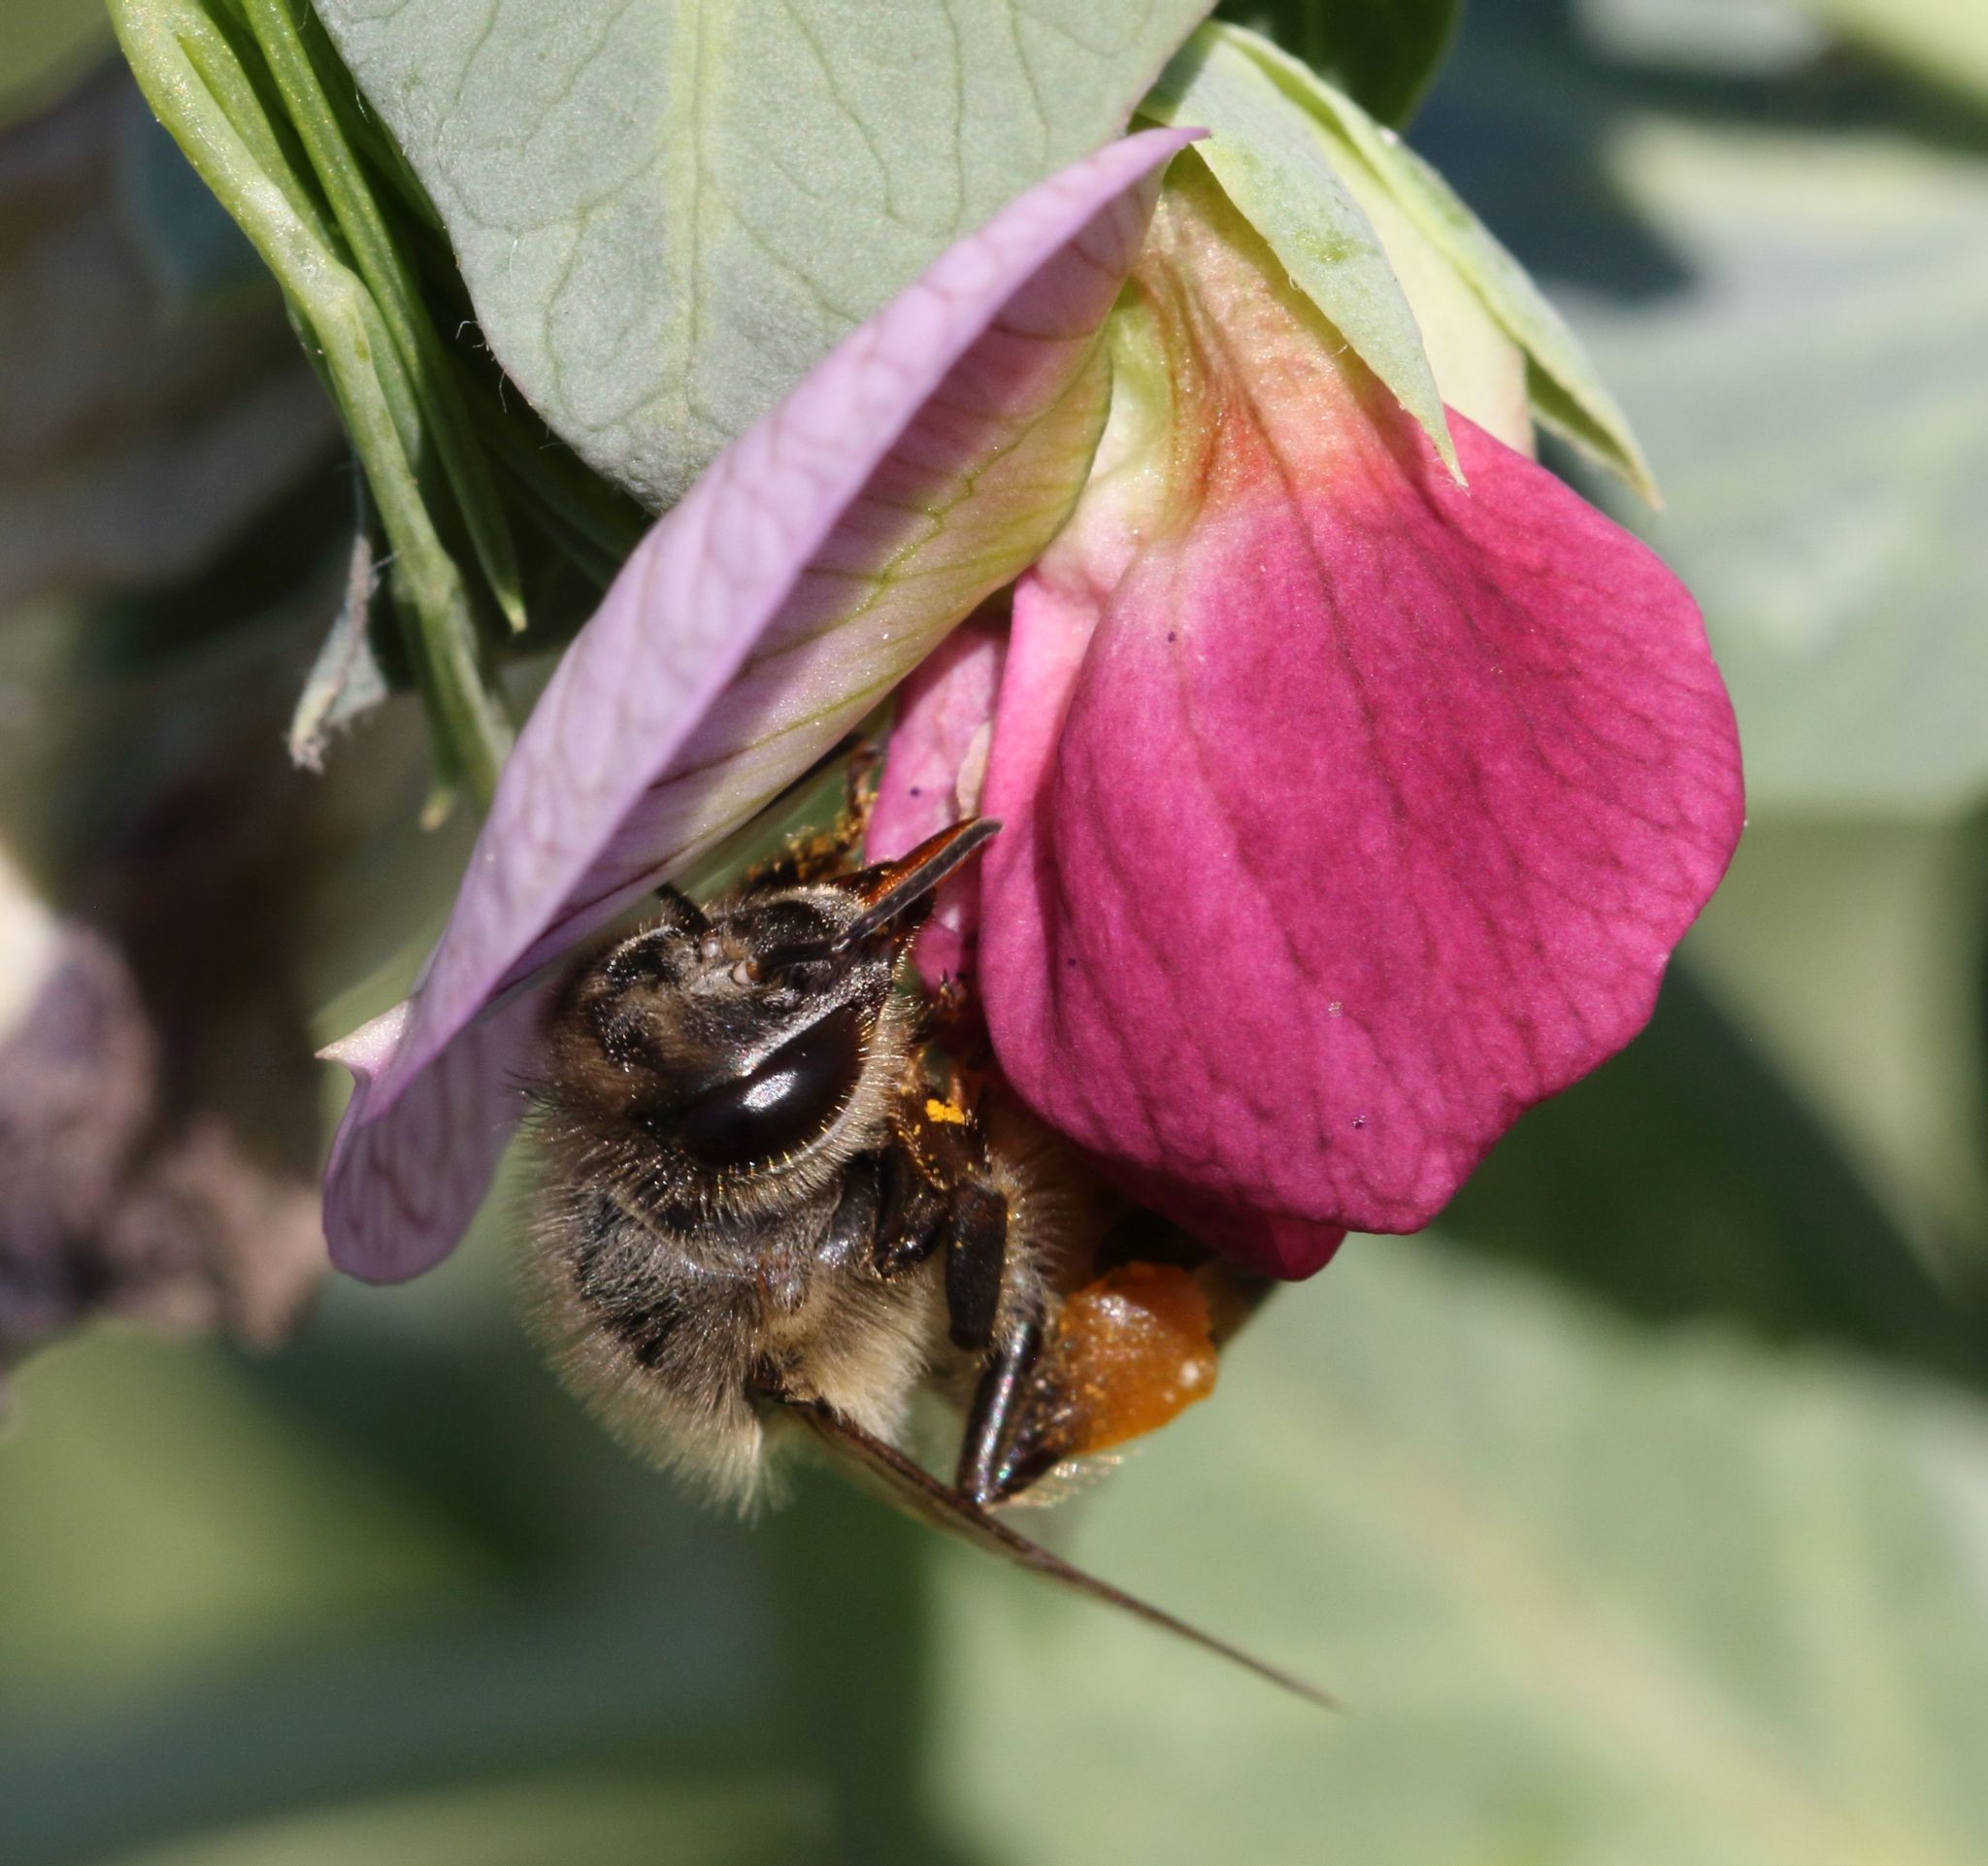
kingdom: Animalia
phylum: Arthropoda
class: Insecta
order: Hymenoptera
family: Apidae
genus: Apis
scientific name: Apis mellifera
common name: Honey bee
